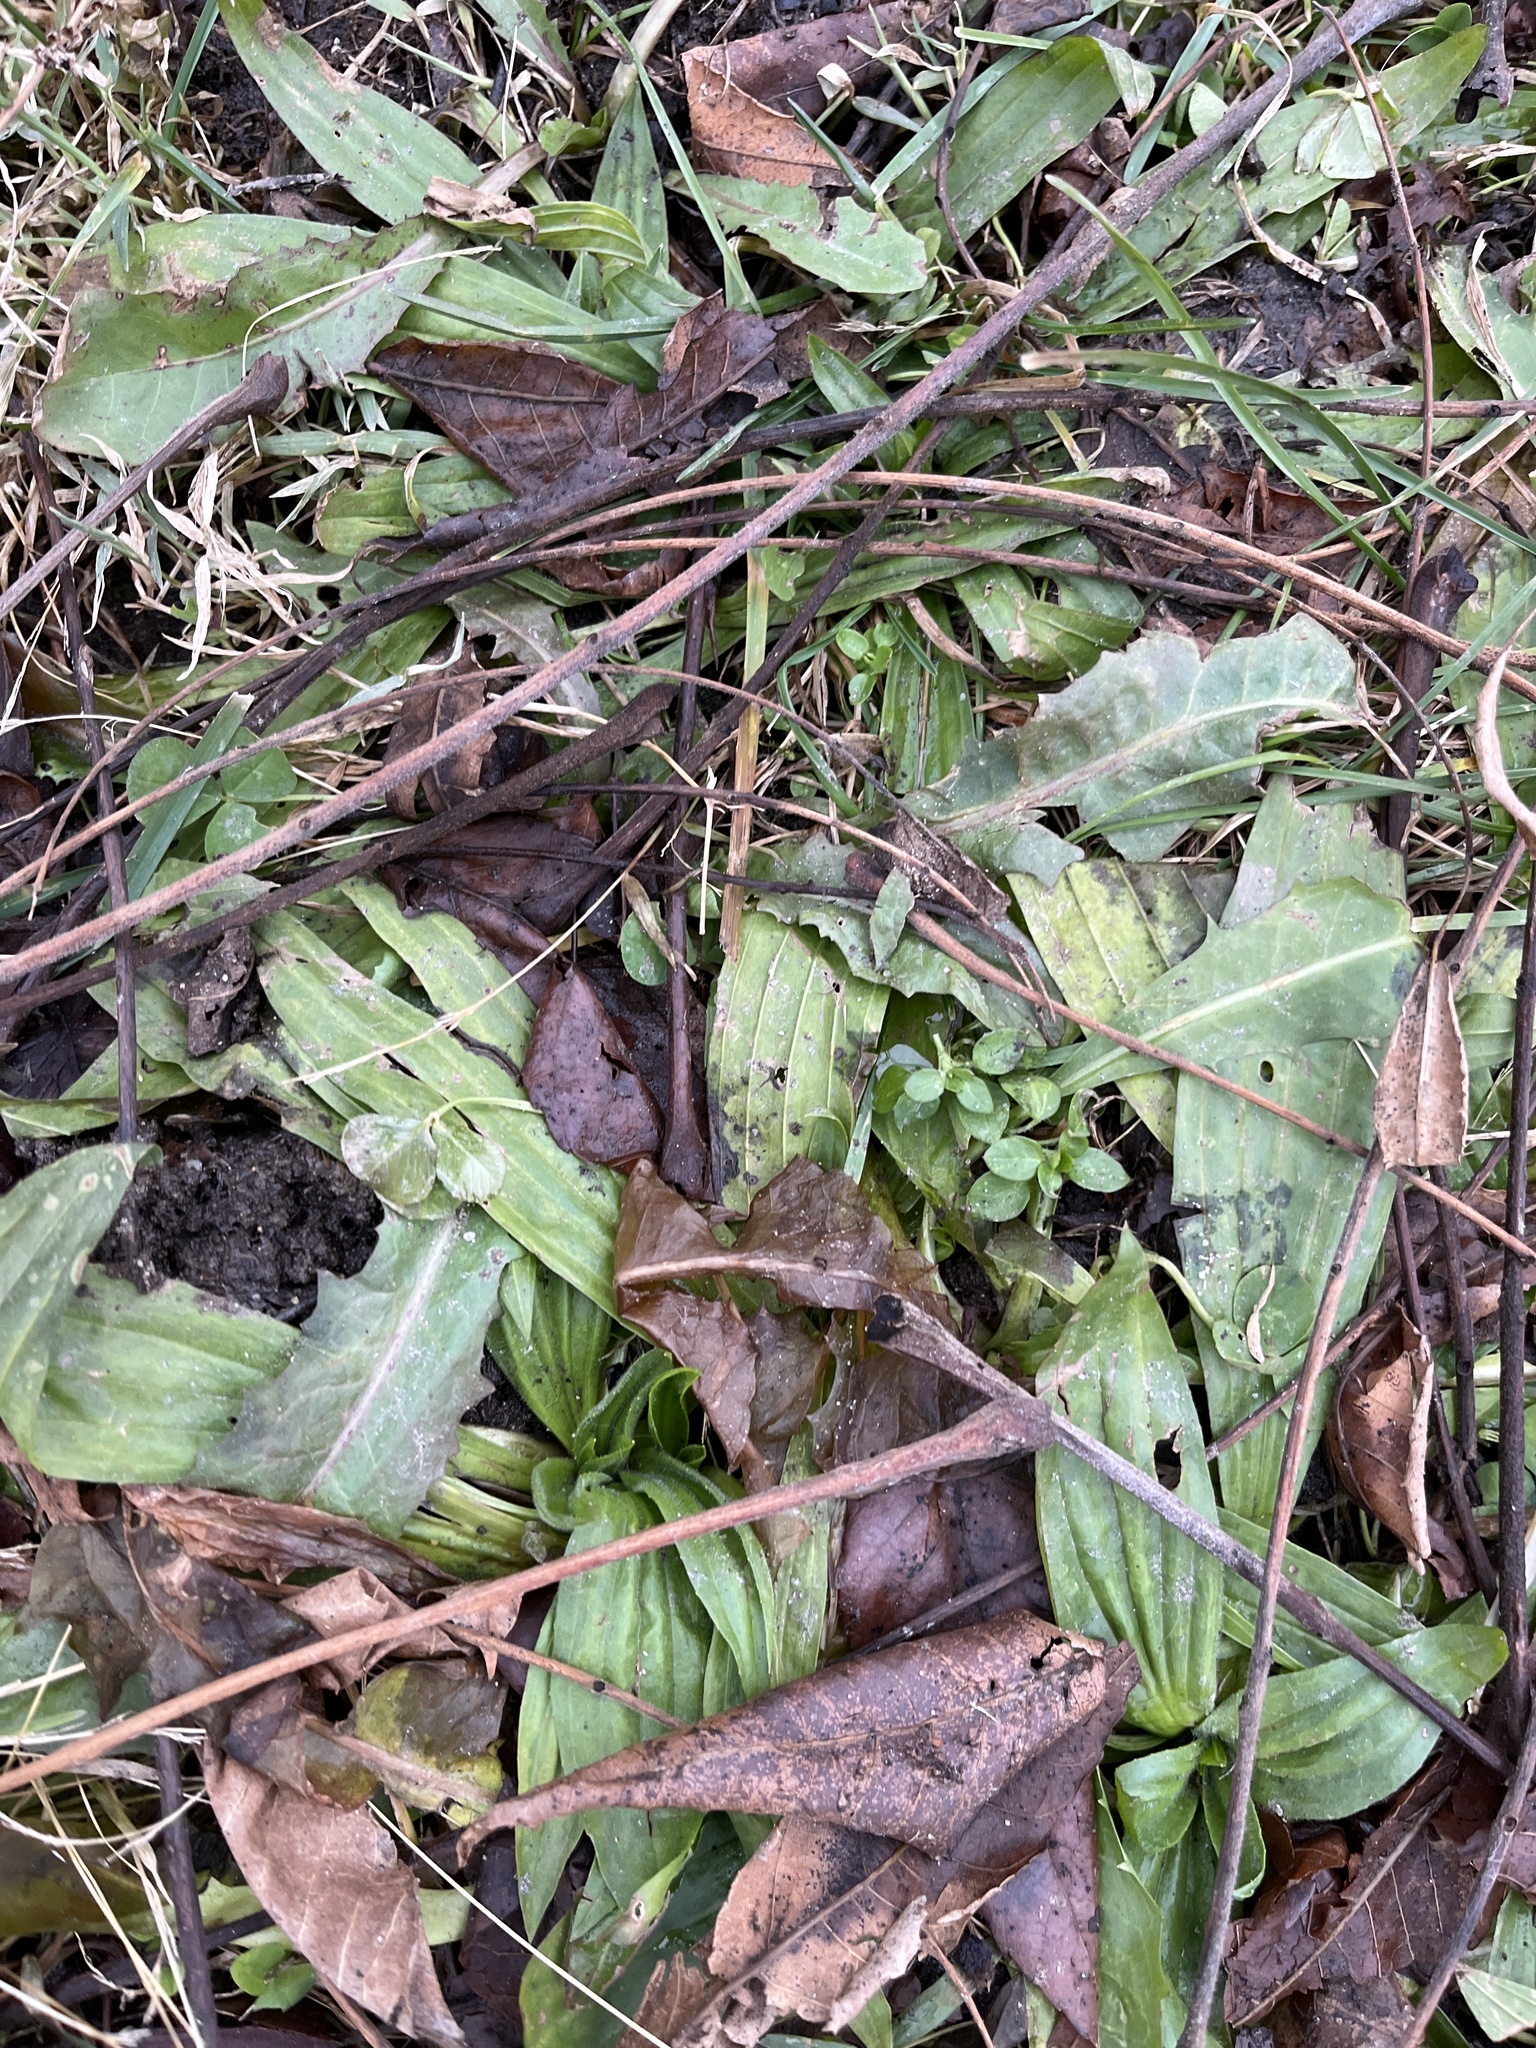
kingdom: Plantae
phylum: Tracheophyta
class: Magnoliopsida
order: Lamiales
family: Plantaginaceae
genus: Plantago
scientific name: Plantago lanceolata
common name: Ribwort plantain
